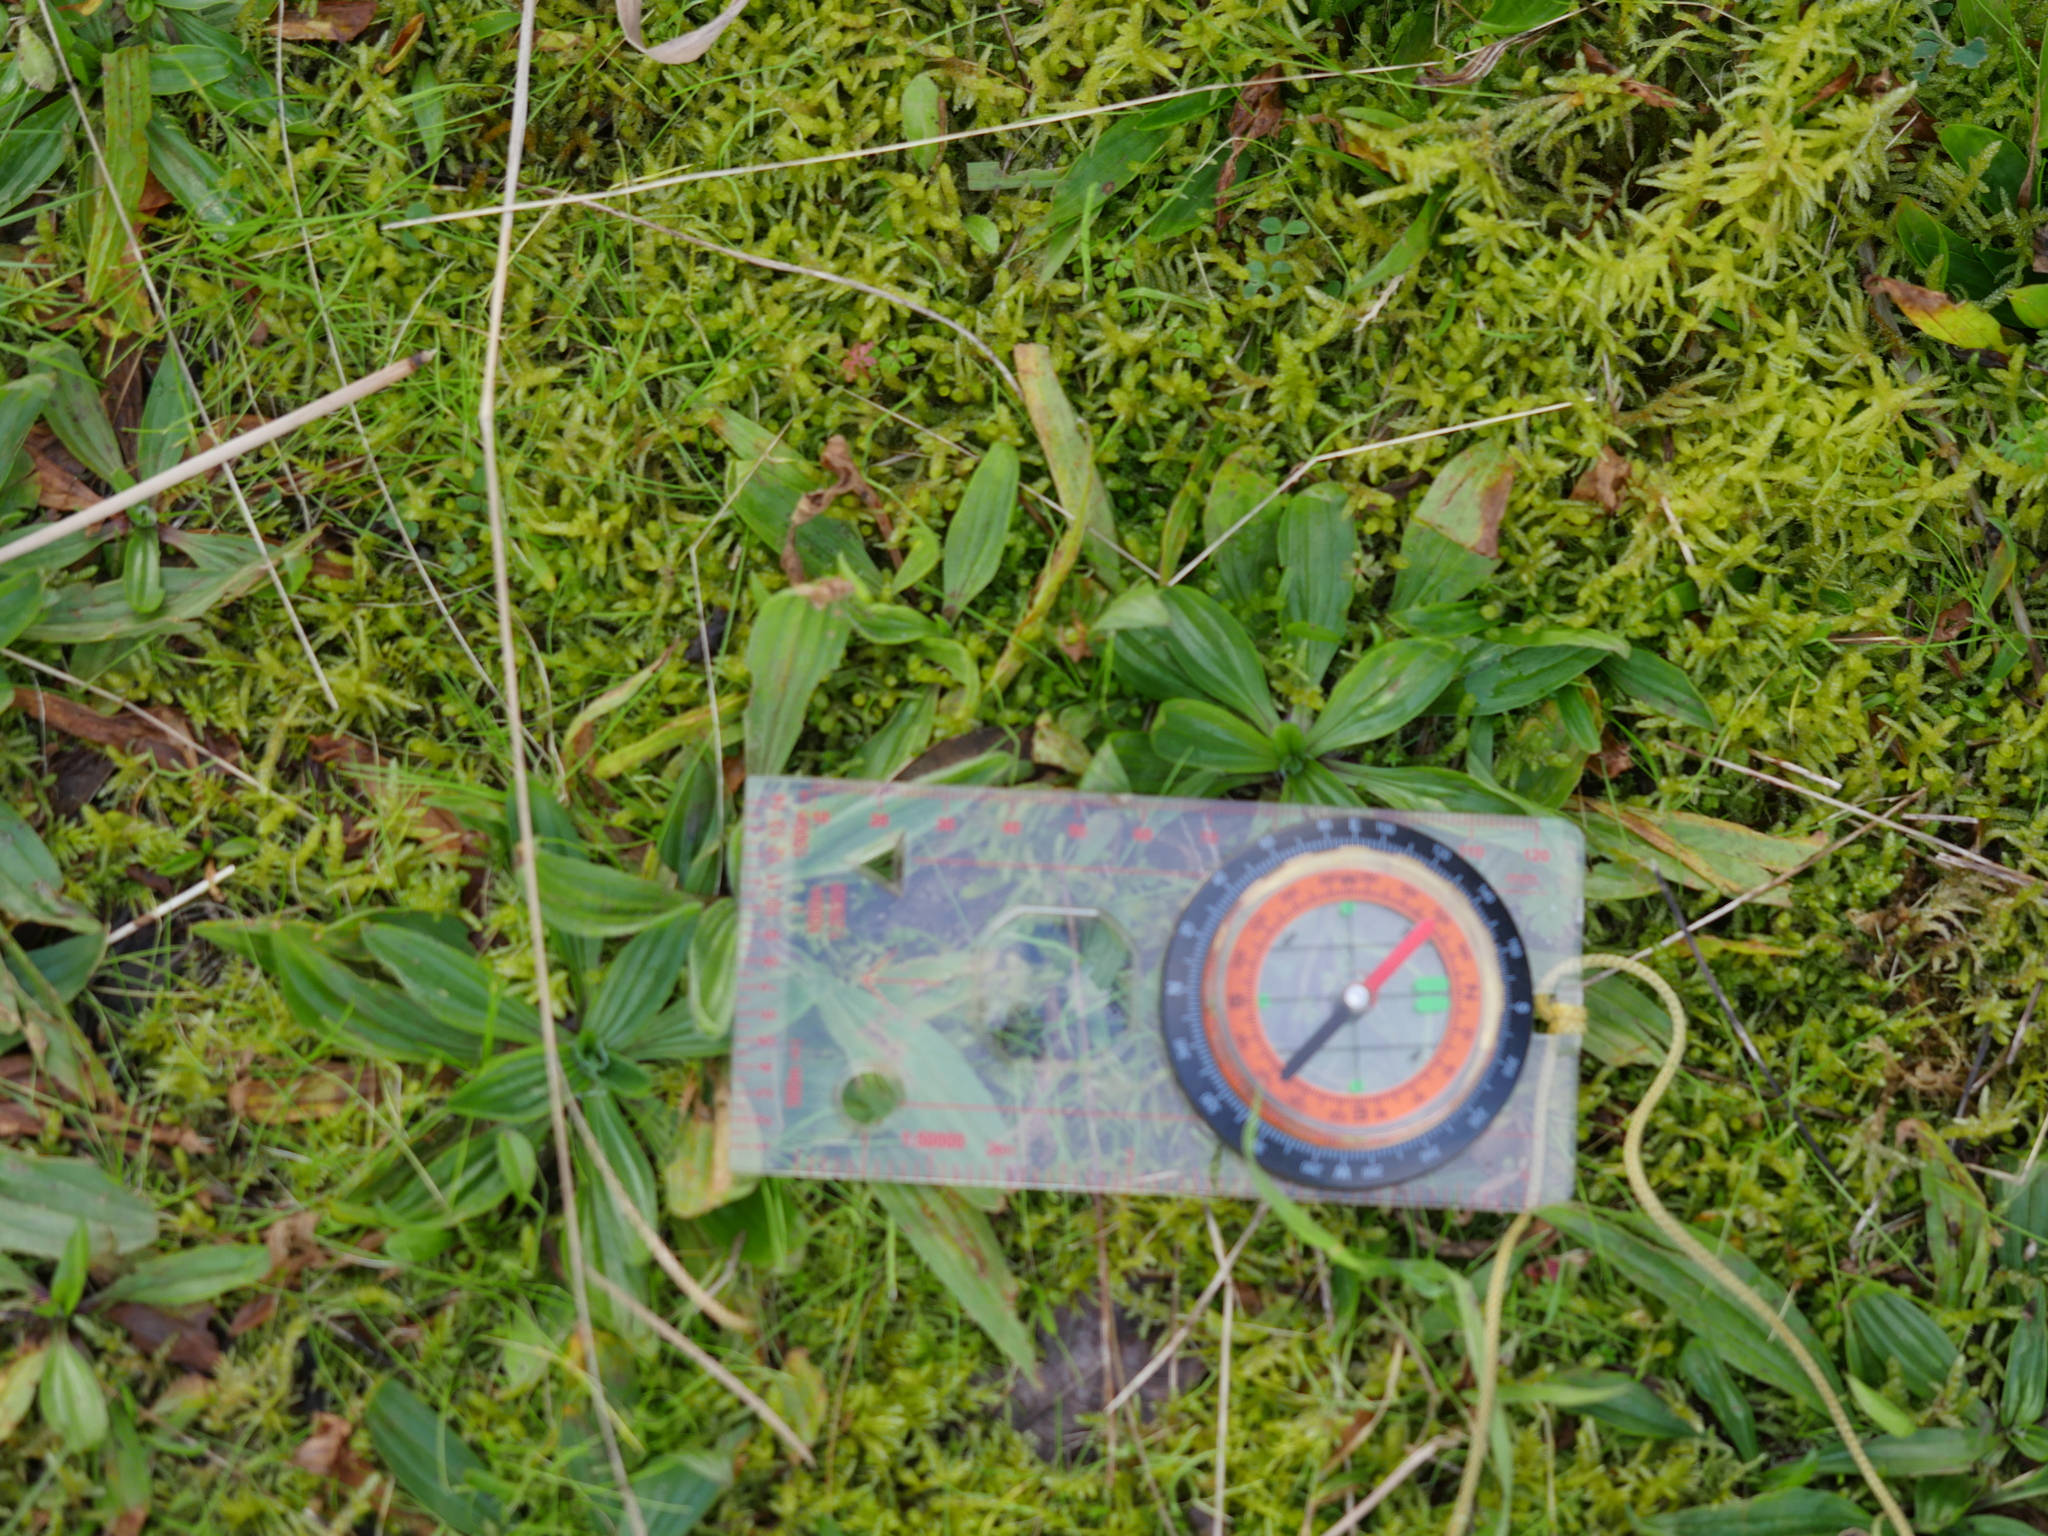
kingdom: Plantae
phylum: Bryophyta
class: Bryopsida
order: Hypnales
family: Brachytheciaceae
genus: Pseudoscleropodium
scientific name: Pseudoscleropodium purum
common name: Neat feather-moss
